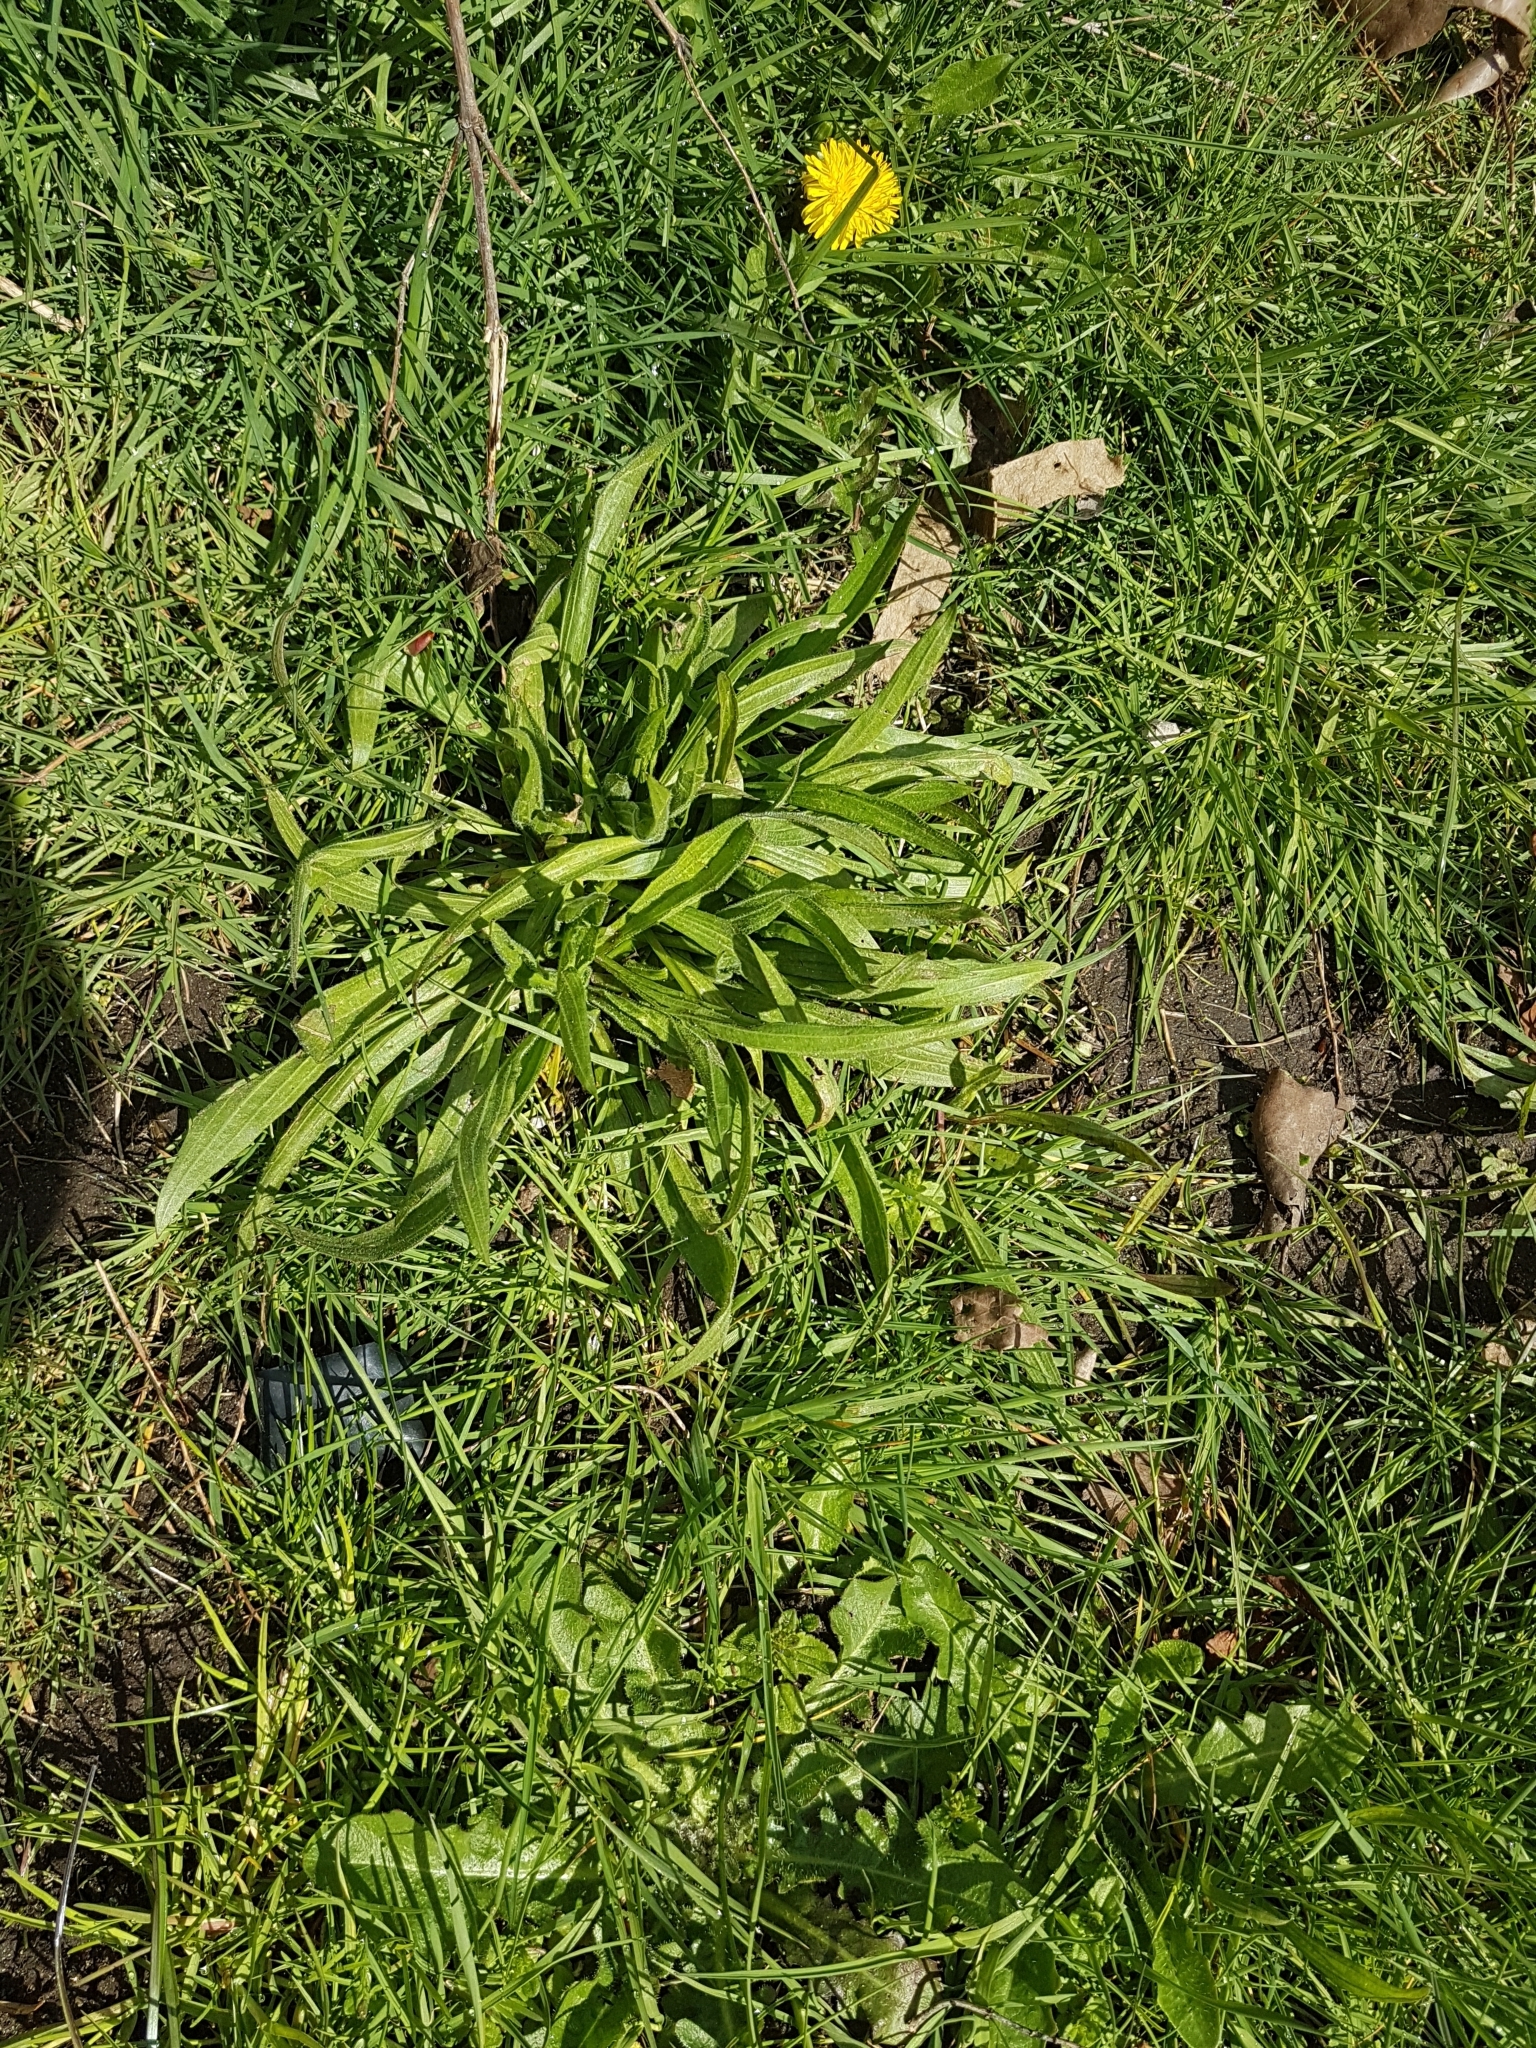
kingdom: Plantae
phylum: Tracheophyta
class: Magnoliopsida
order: Lamiales
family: Plantaginaceae
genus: Plantago
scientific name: Plantago lanceolata
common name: Ribwort plantain
